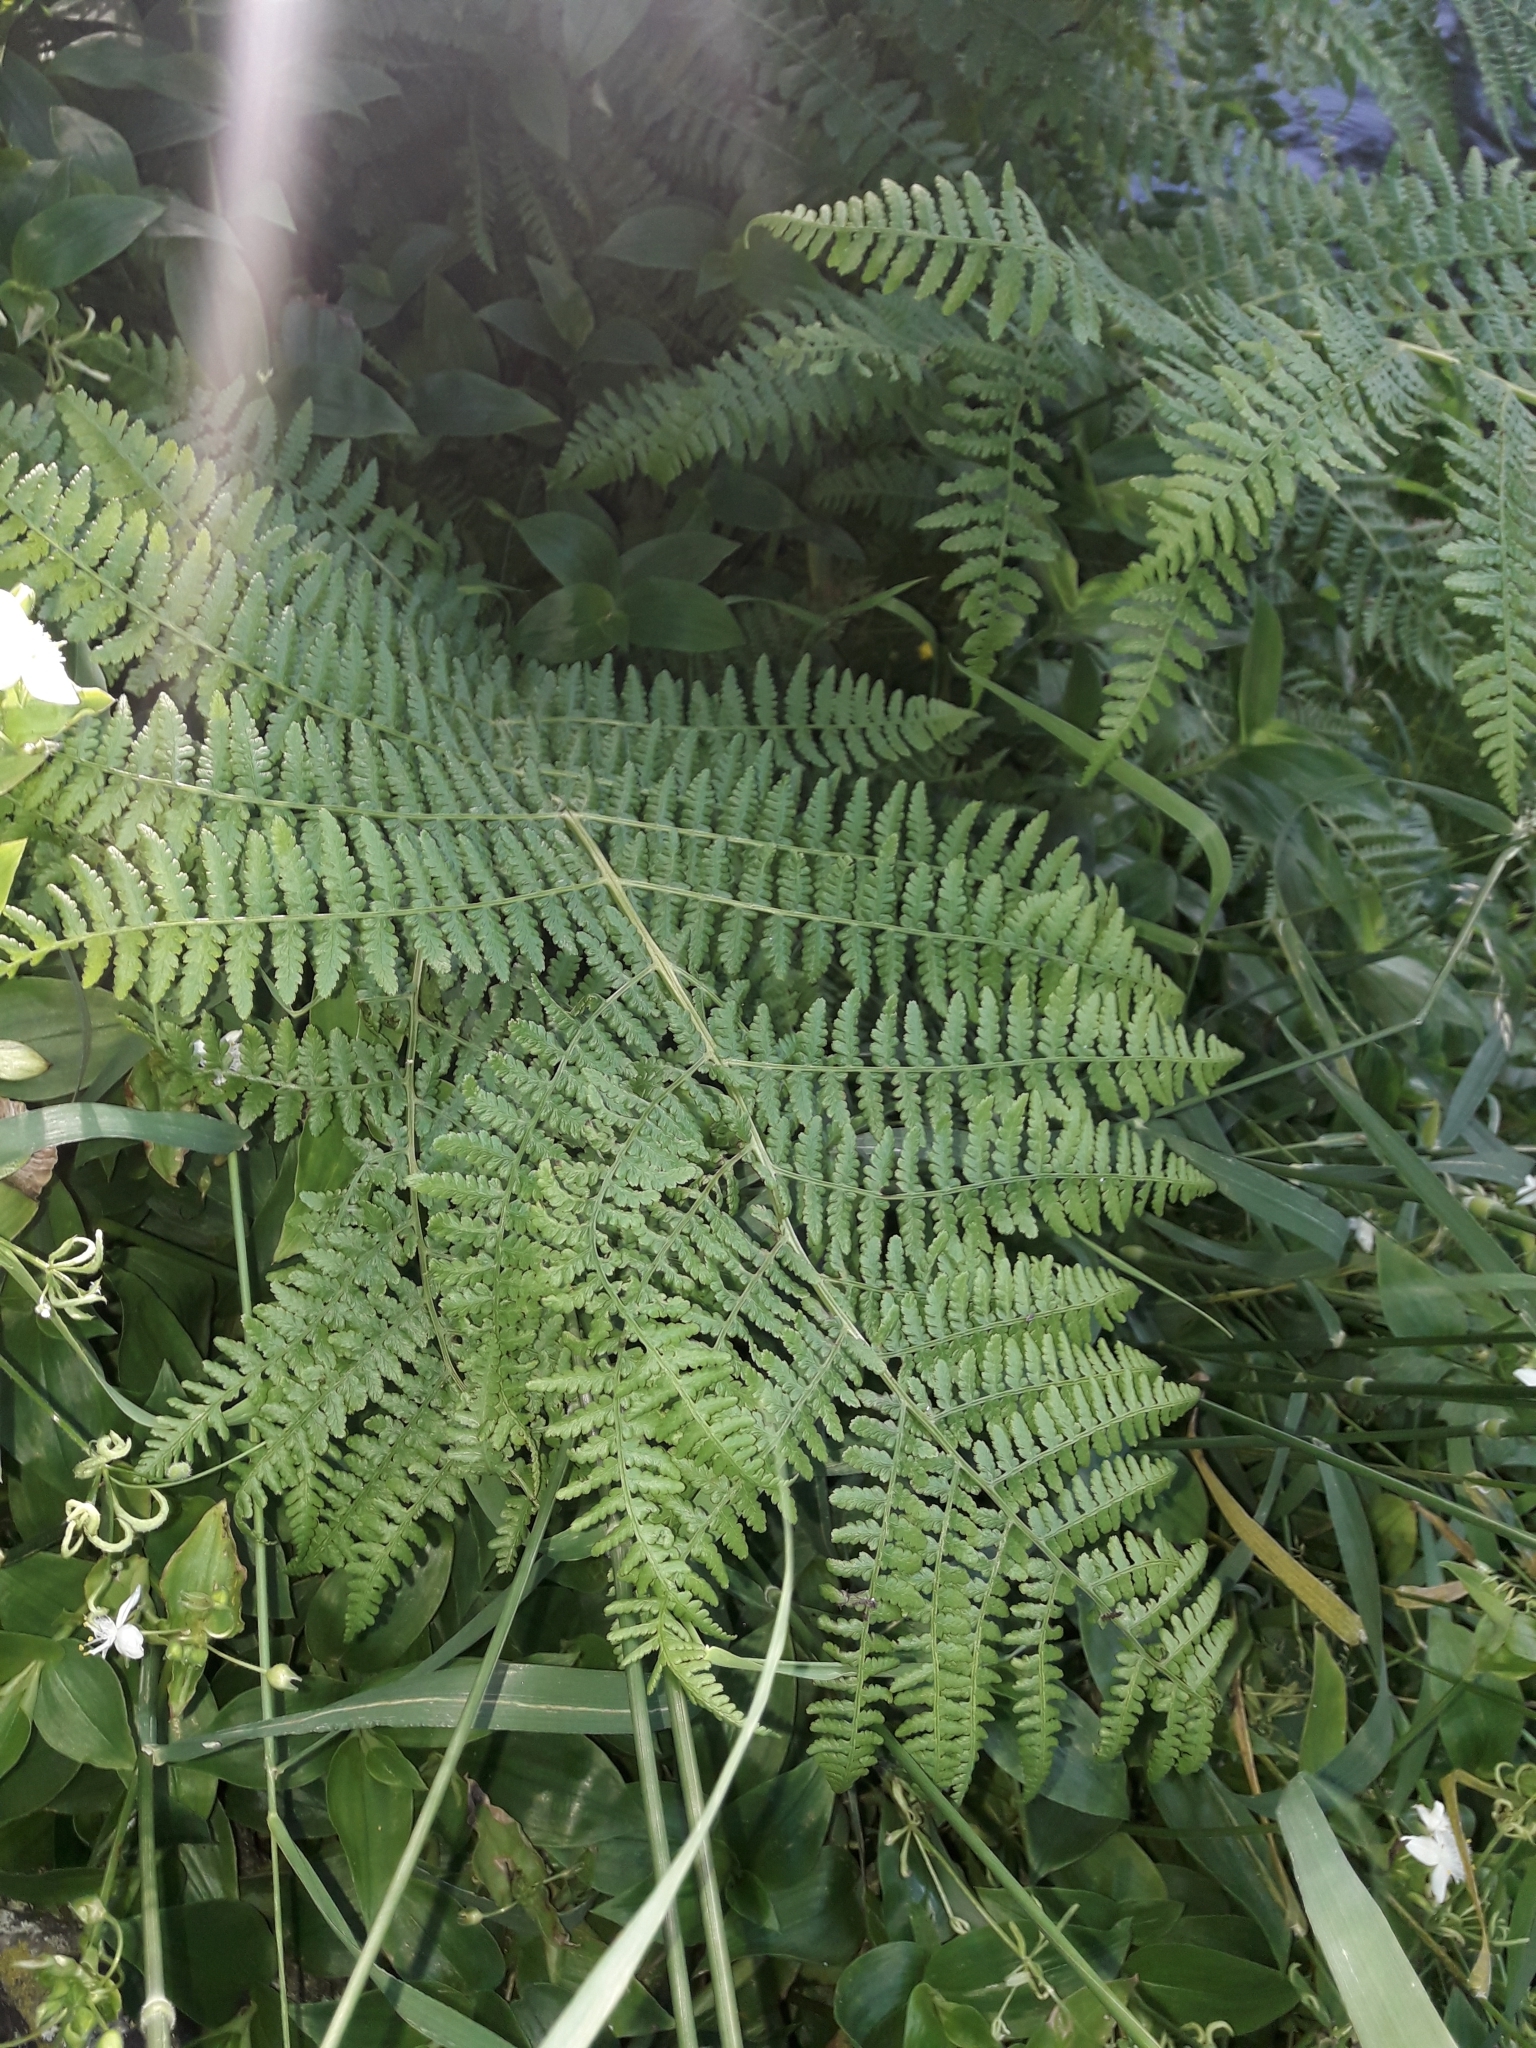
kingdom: Plantae
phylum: Tracheophyta
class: Polypodiopsida
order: Polypodiales
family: Athyriaceae
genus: Athyrium
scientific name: Athyrium filix-femina
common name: Lady fern
